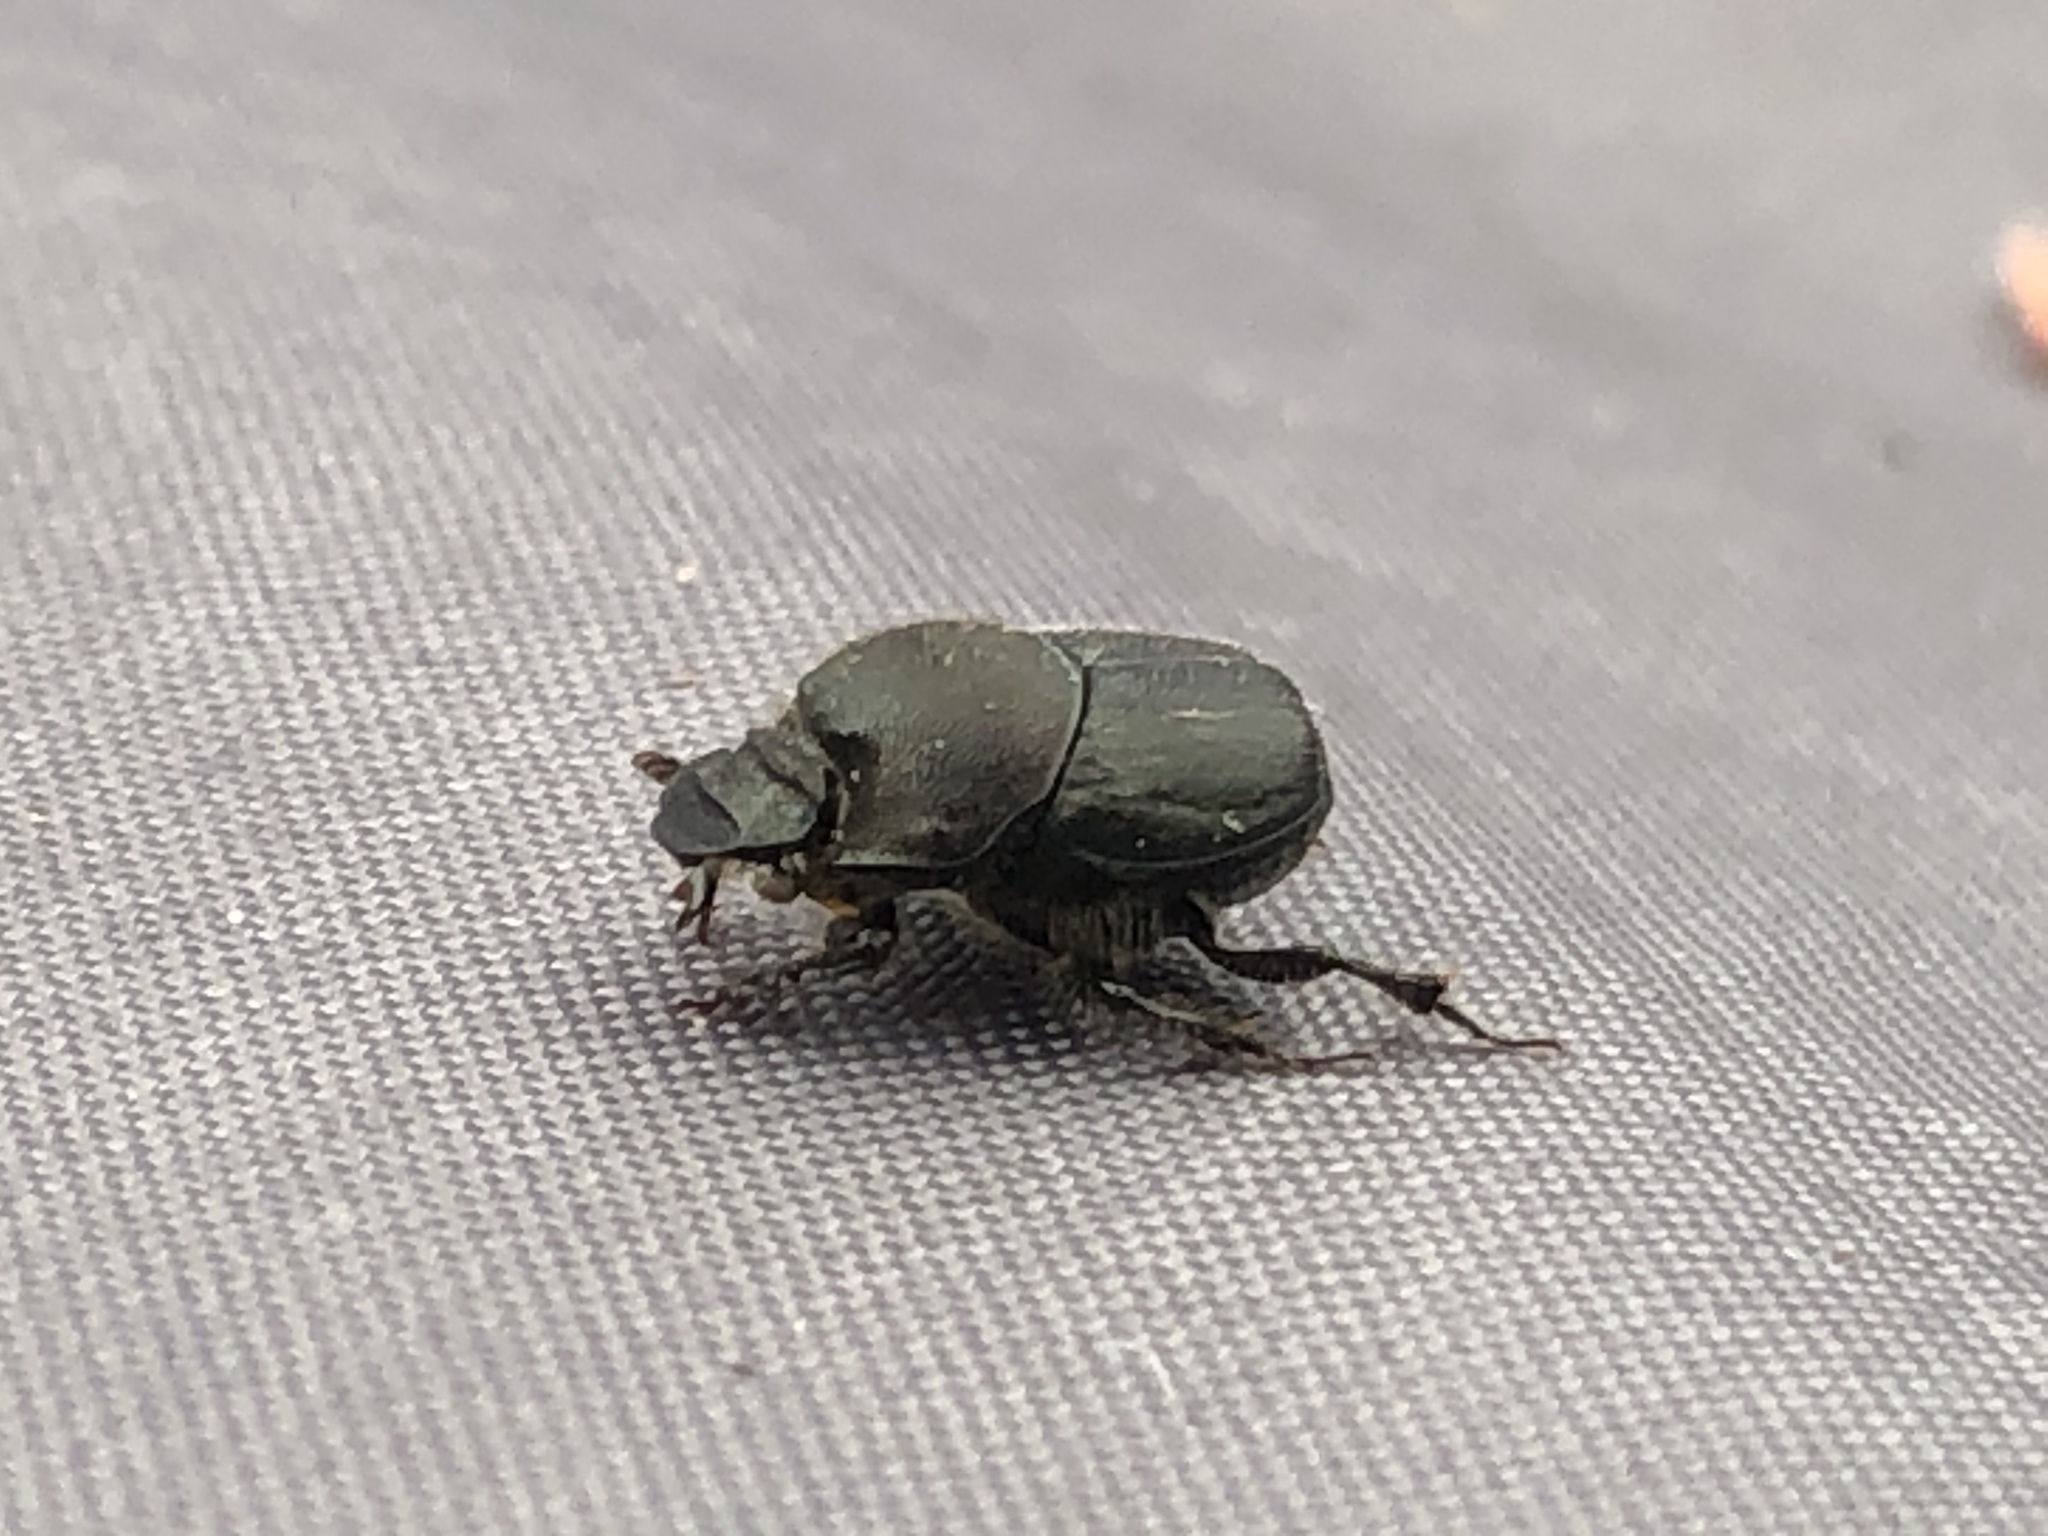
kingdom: Animalia
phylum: Arthropoda
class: Insecta
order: Coleoptera
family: Scarabaeidae
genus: Onthophagus
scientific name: Onthophagus hecate
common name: Scooped scarab
